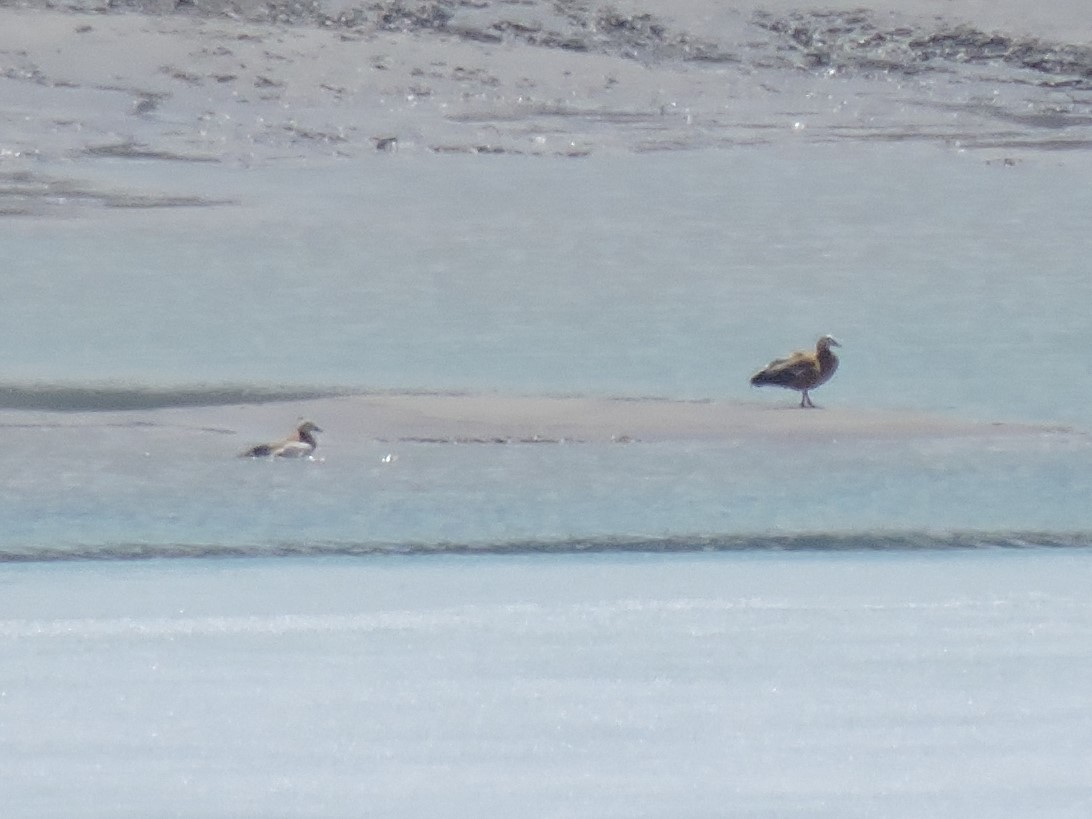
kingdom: Animalia
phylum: Chordata
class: Aves
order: Anseriformes
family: Anatidae
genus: Tadorna
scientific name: Tadorna ferruginea
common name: Ruddy shelduck
